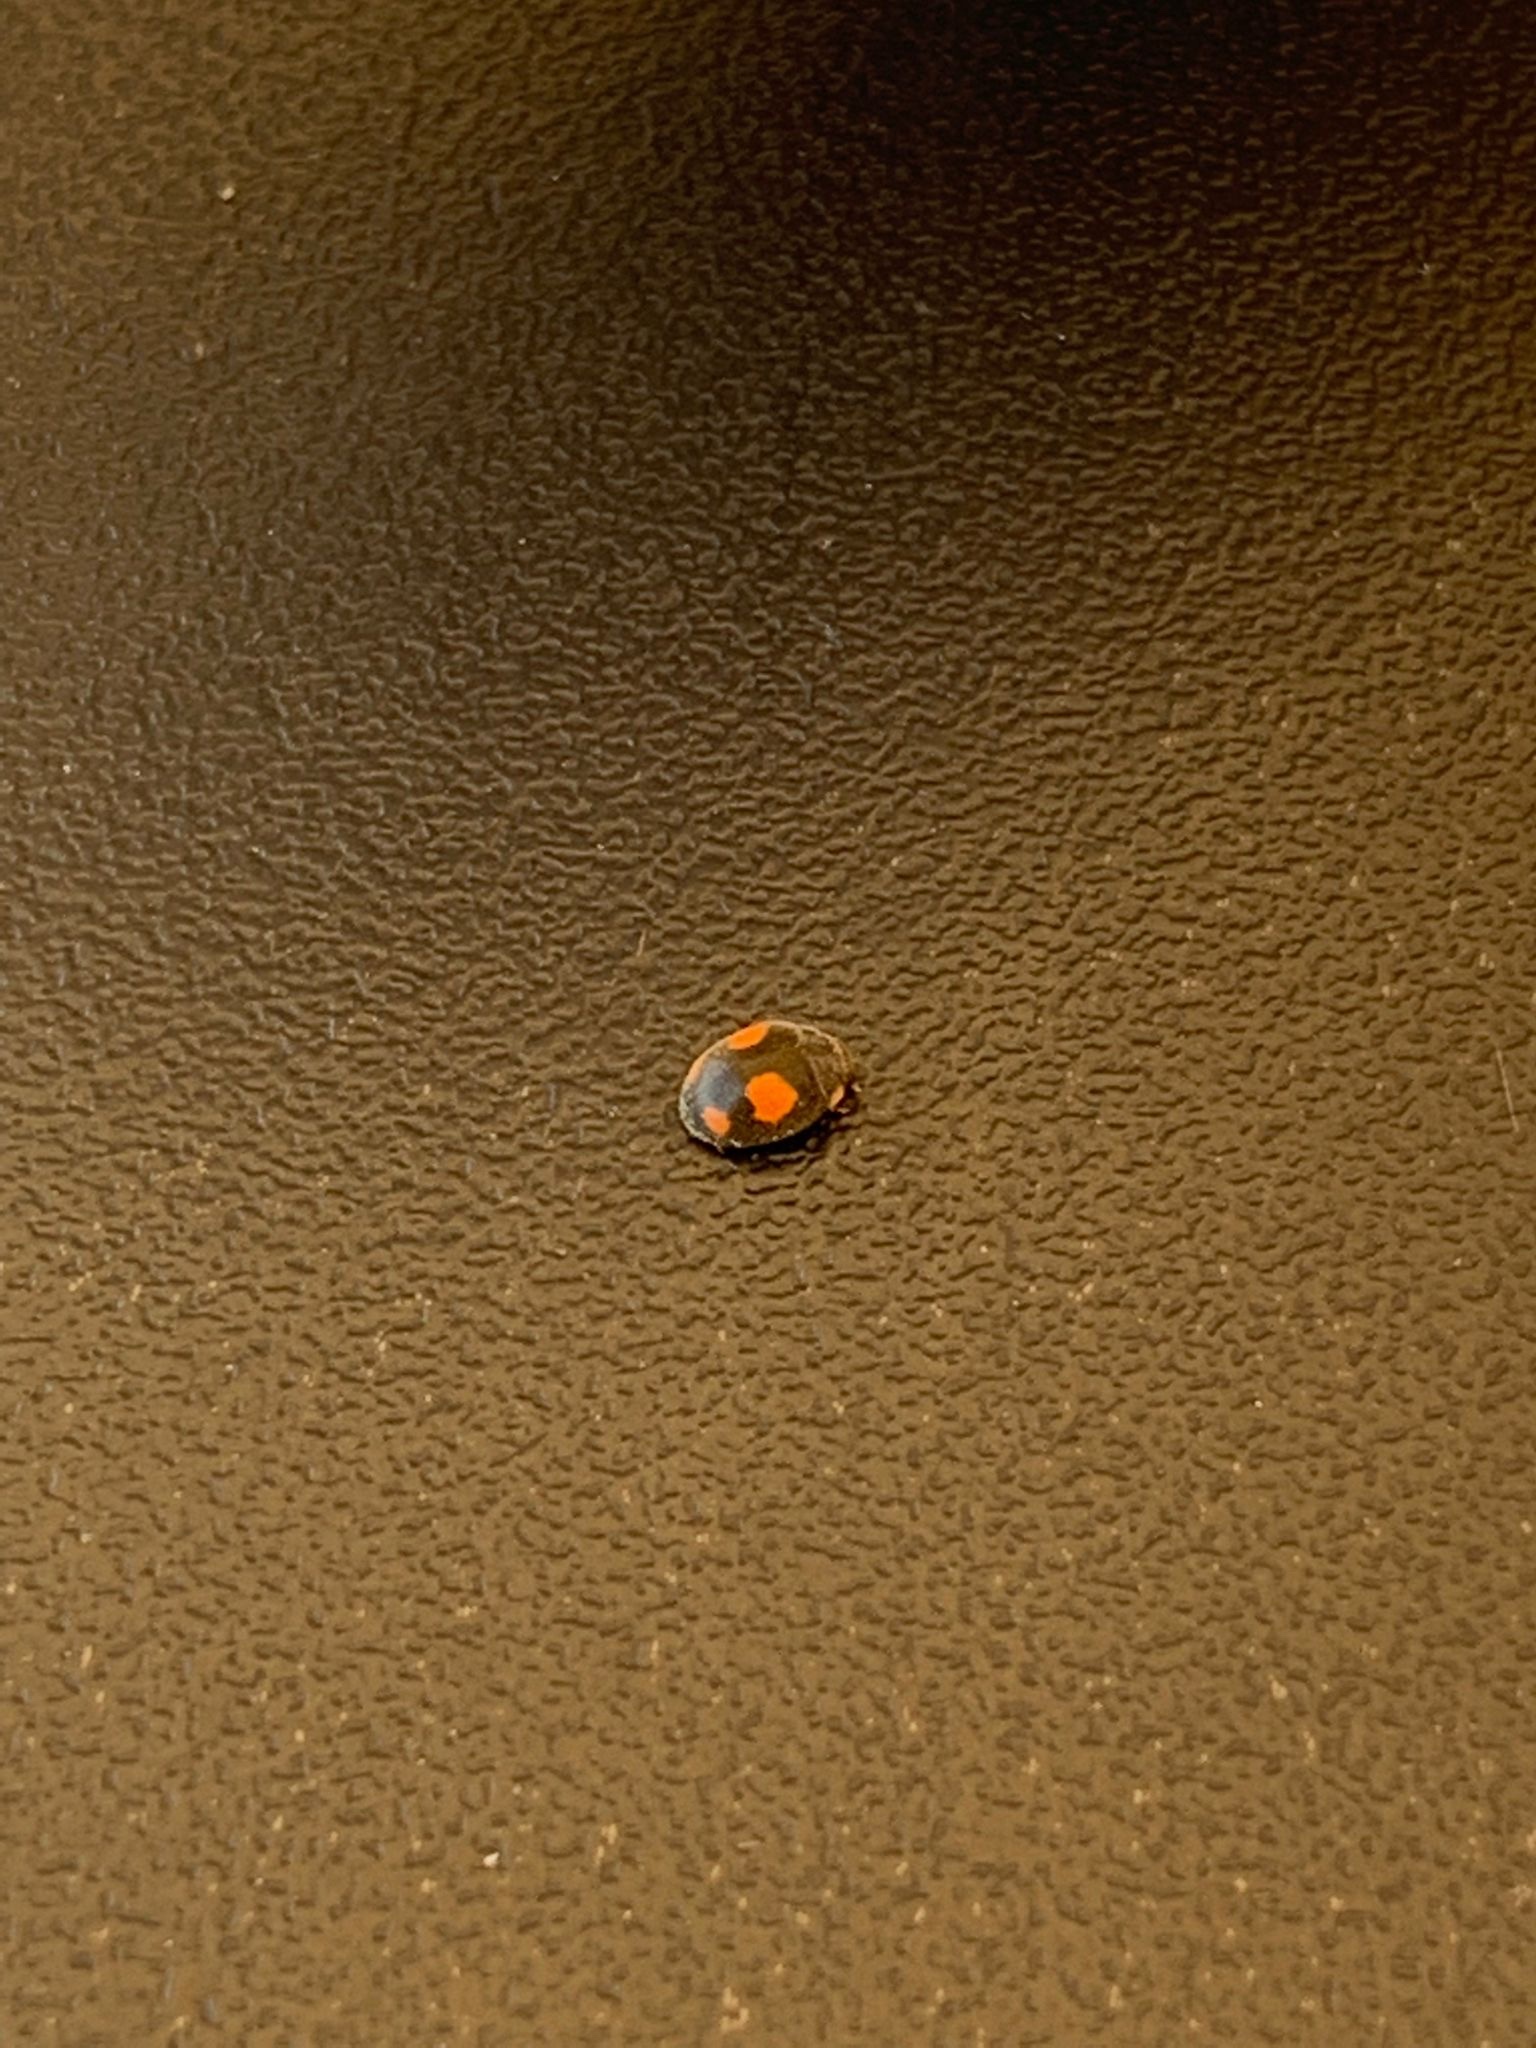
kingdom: Animalia
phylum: Arthropoda
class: Insecta
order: Coleoptera
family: Coccinellidae
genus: Platynaspis
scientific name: Platynaspis luteorubra
